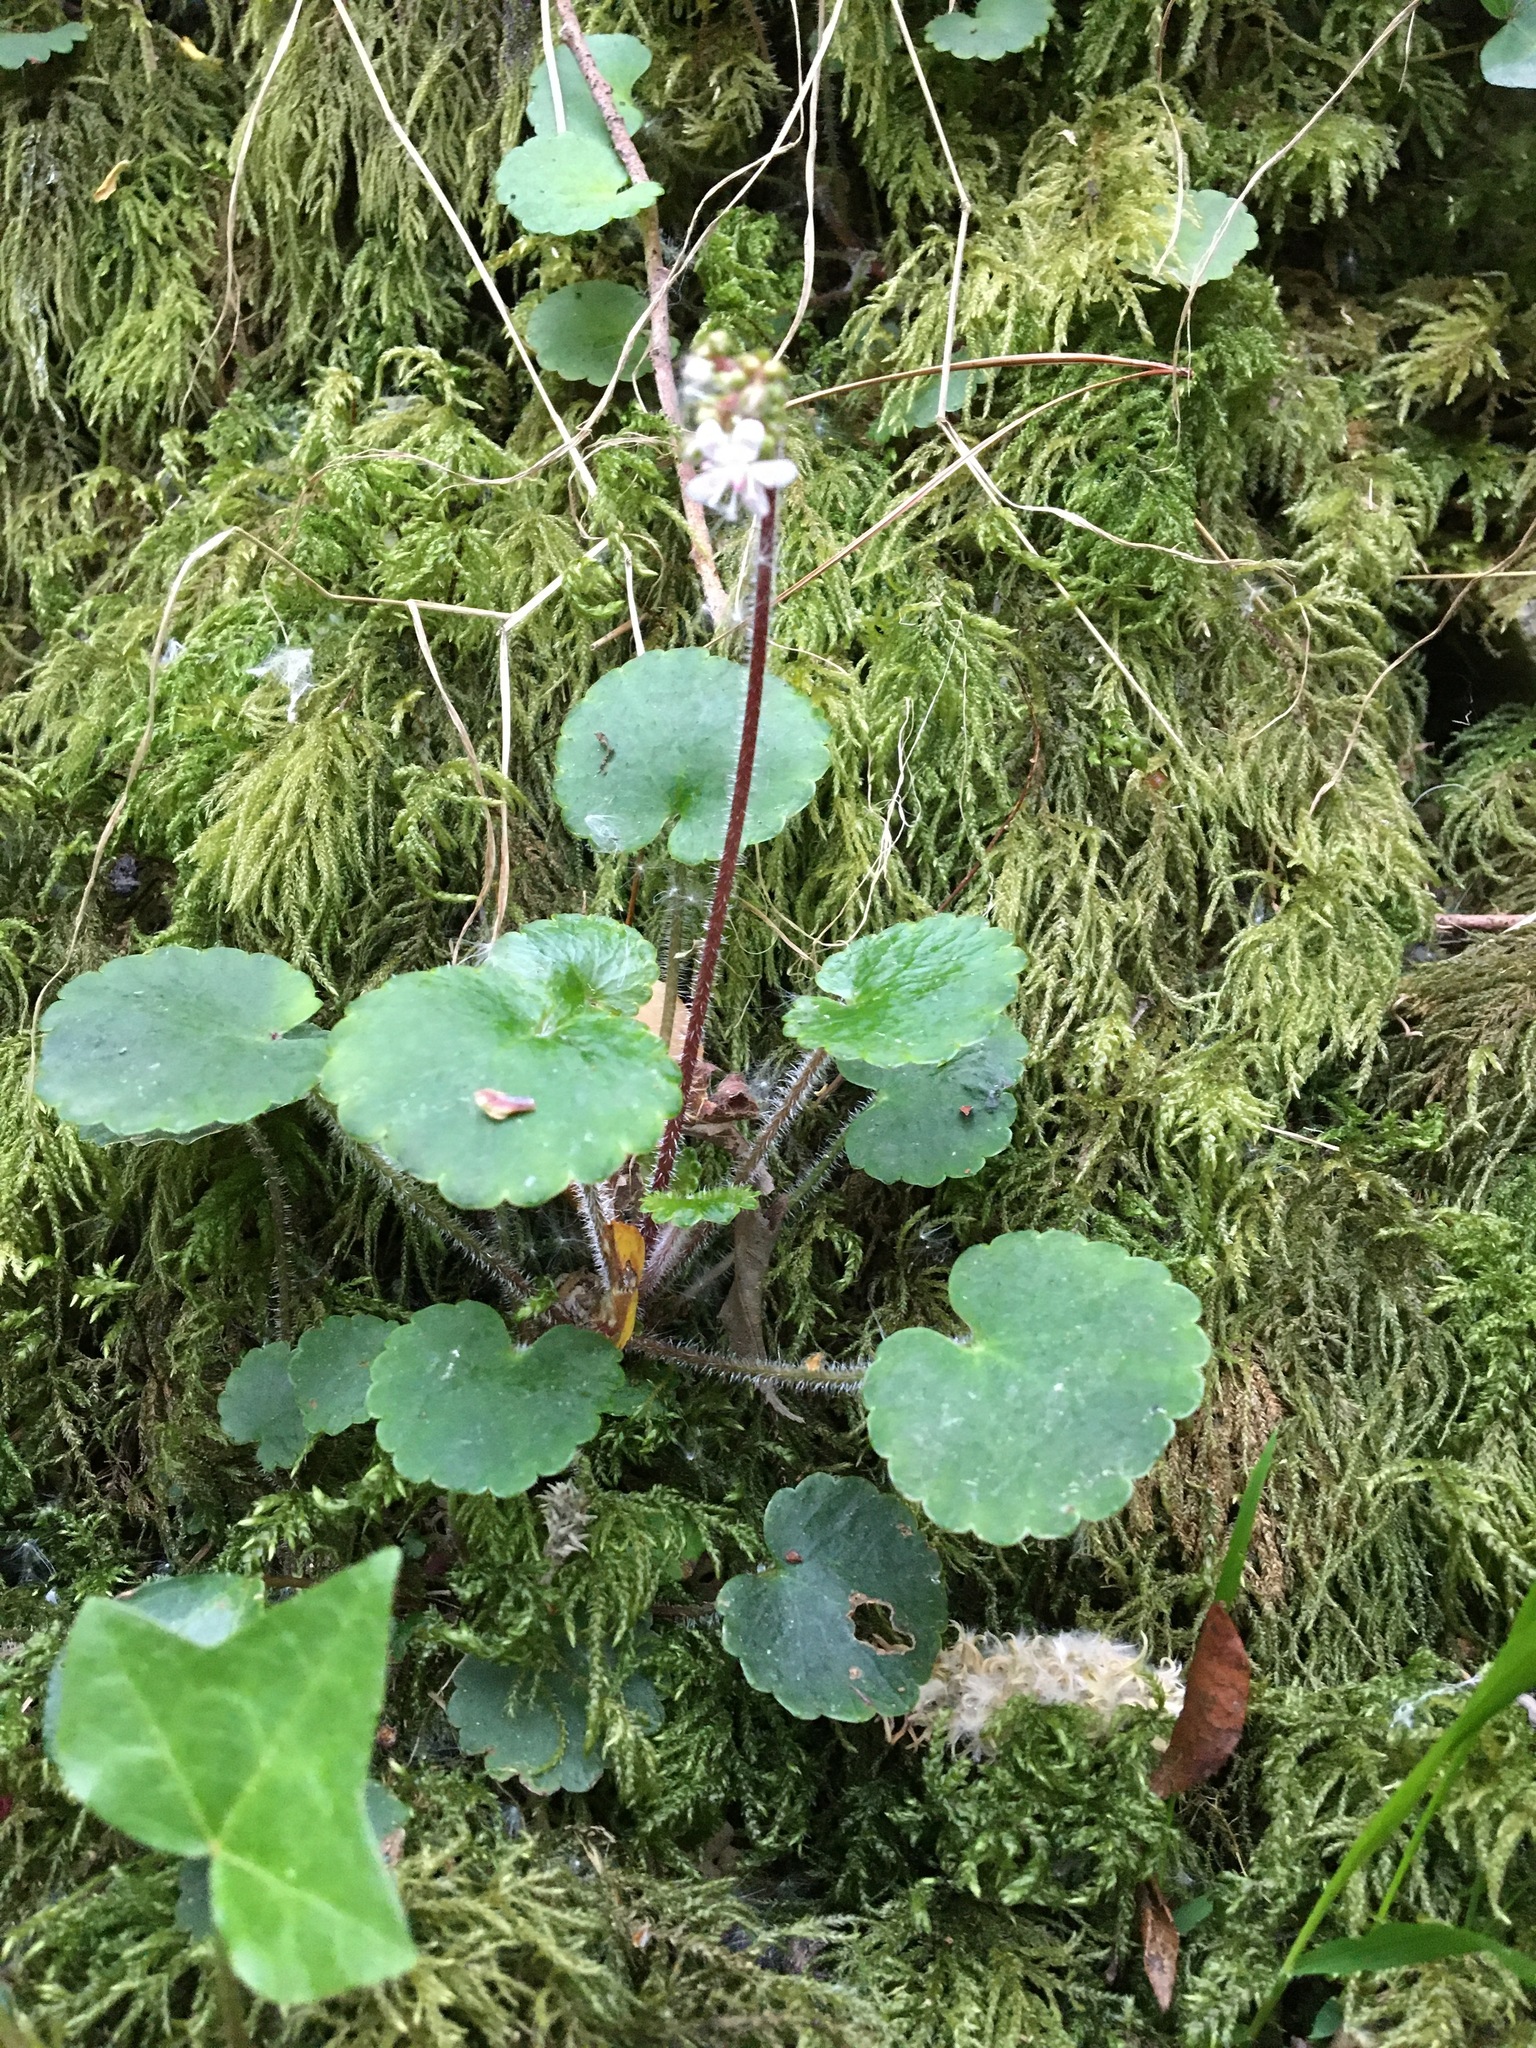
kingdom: Plantae
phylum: Tracheophyta
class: Magnoliopsida
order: Saxifragales
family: Saxifragaceae
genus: Saxifraga
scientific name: Saxifraga hirsuta
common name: Kidney saxifrage
